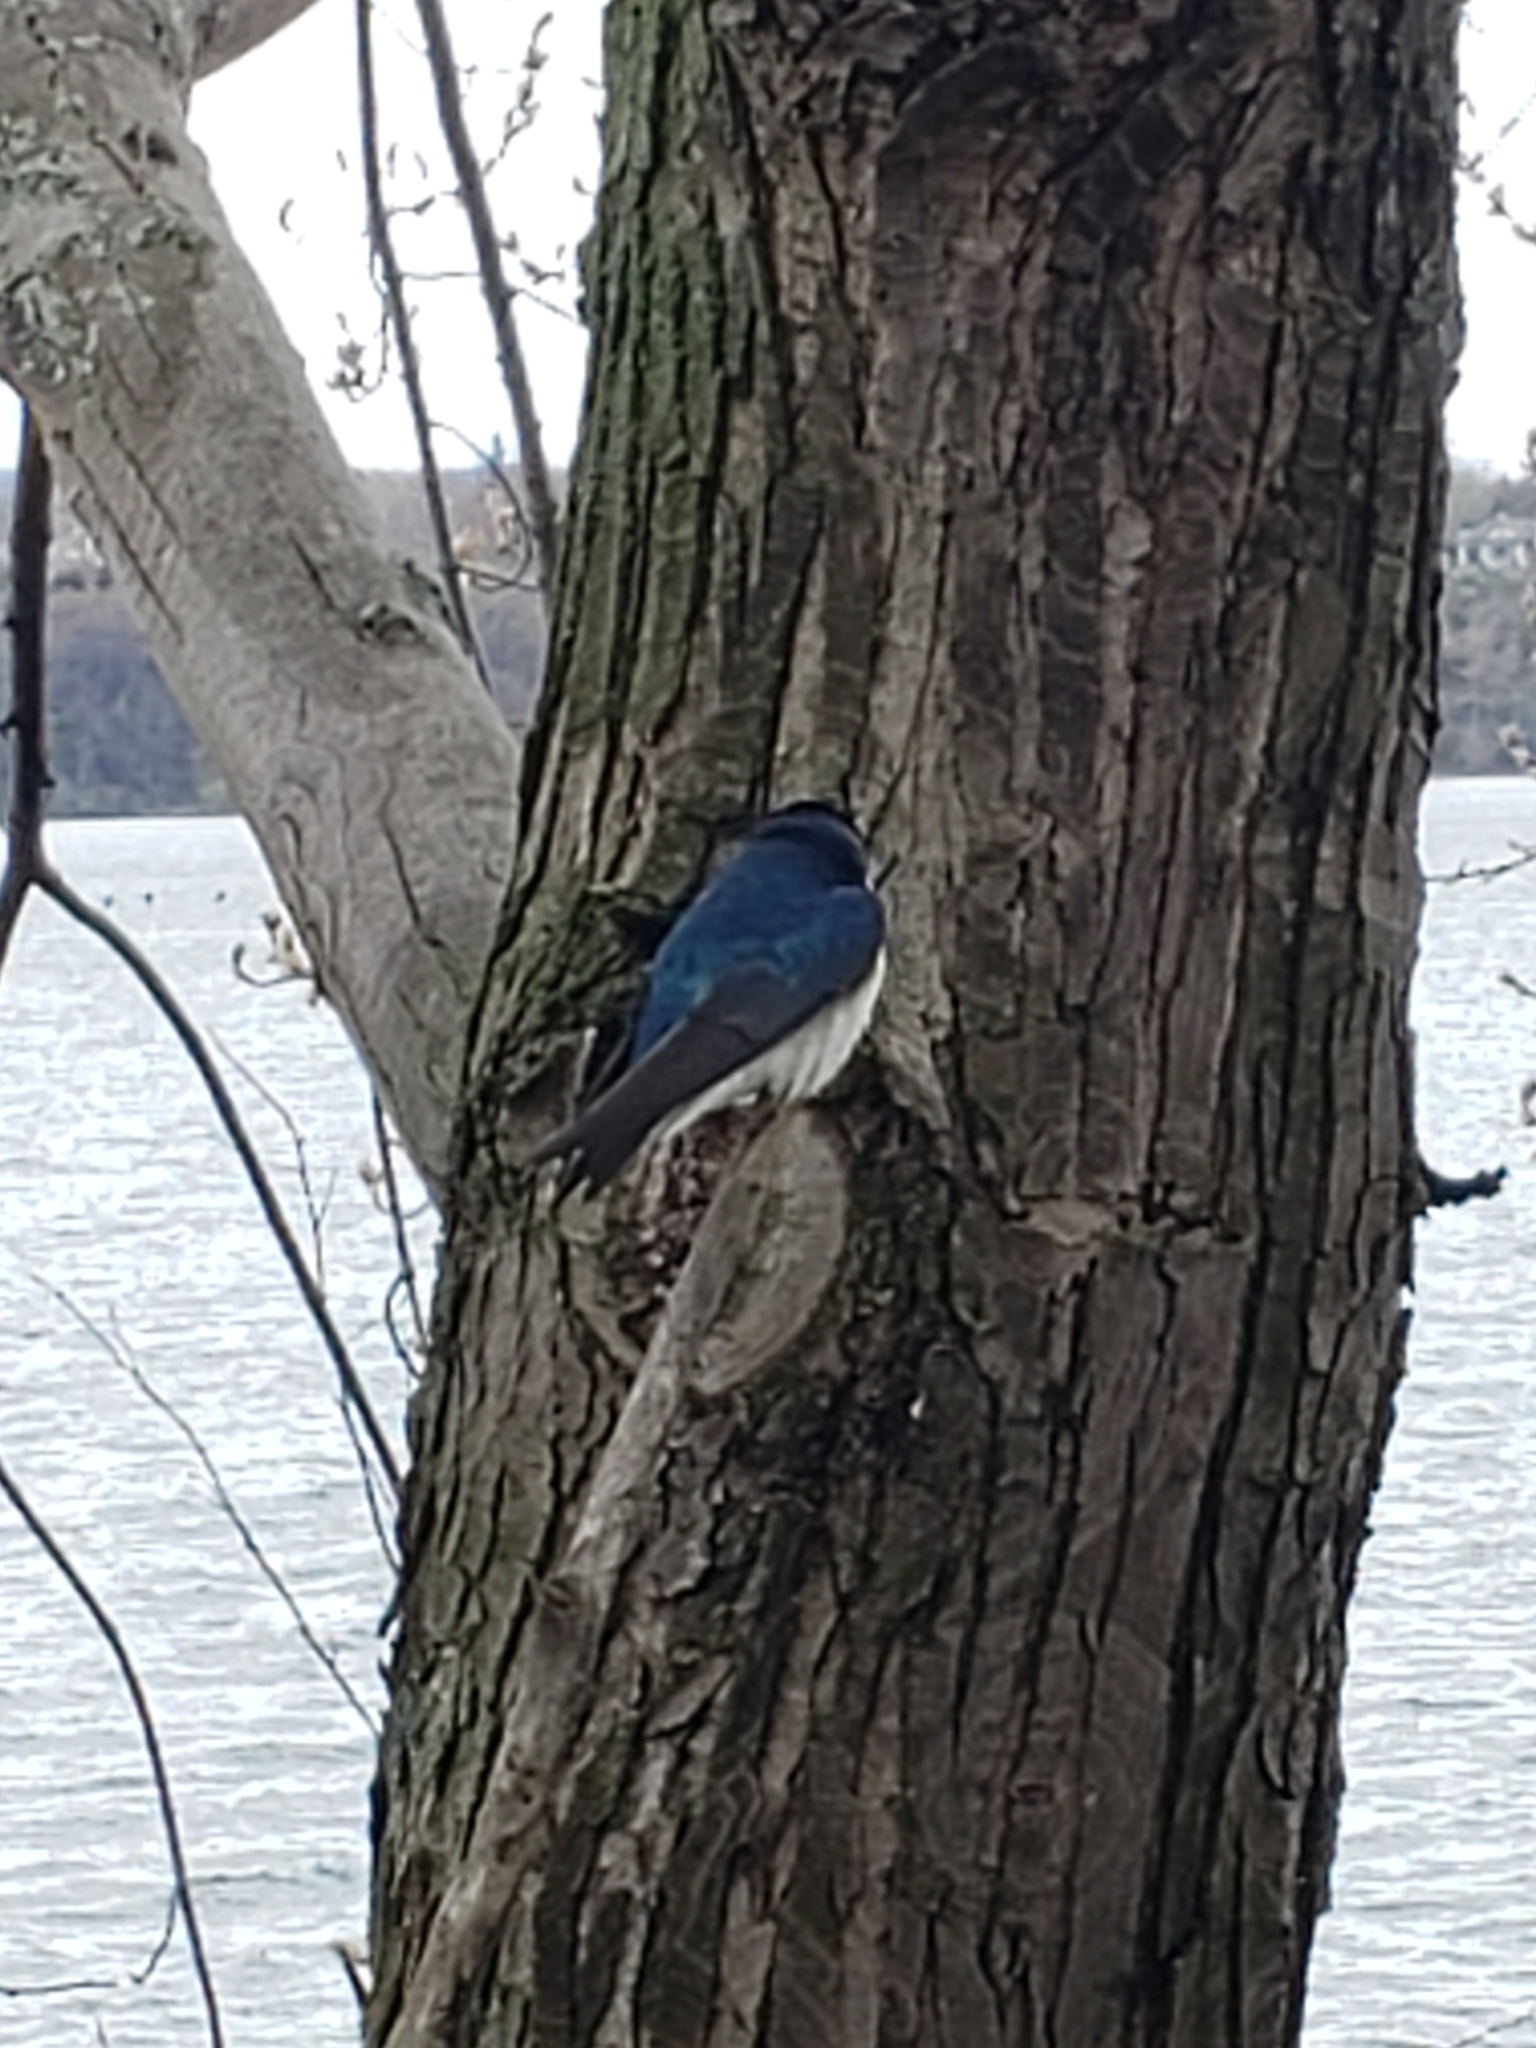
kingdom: Animalia
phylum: Chordata
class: Aves
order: Passeriformes
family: Hirundinidae
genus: Tachycineta
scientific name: Tachycineta bicolor
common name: Tree swallow
